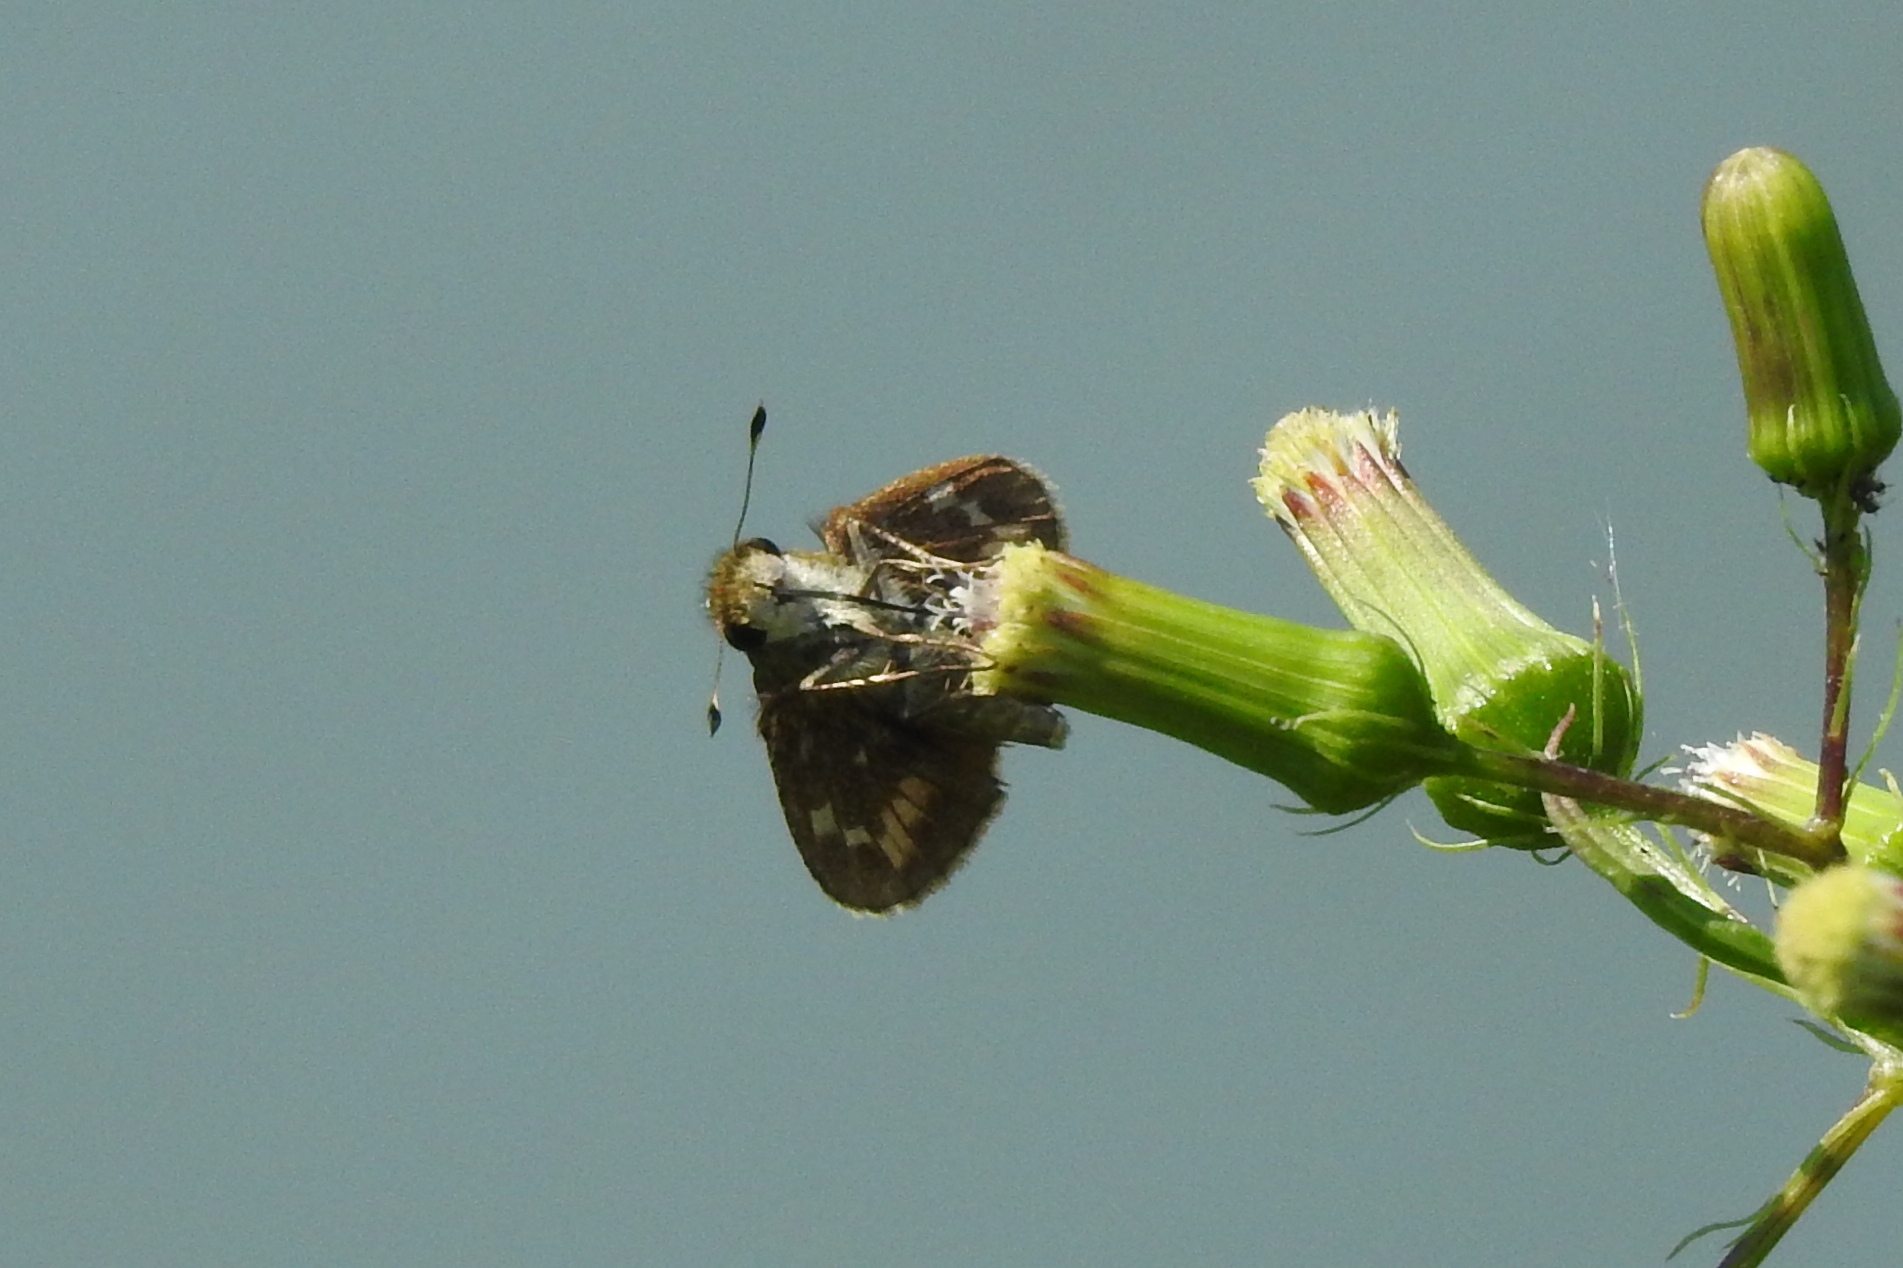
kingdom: Animalia
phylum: Arthropoda
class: Insecta
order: Lepidoptera
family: Hesperiidae
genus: Atalopedes
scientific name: Atalopedes
